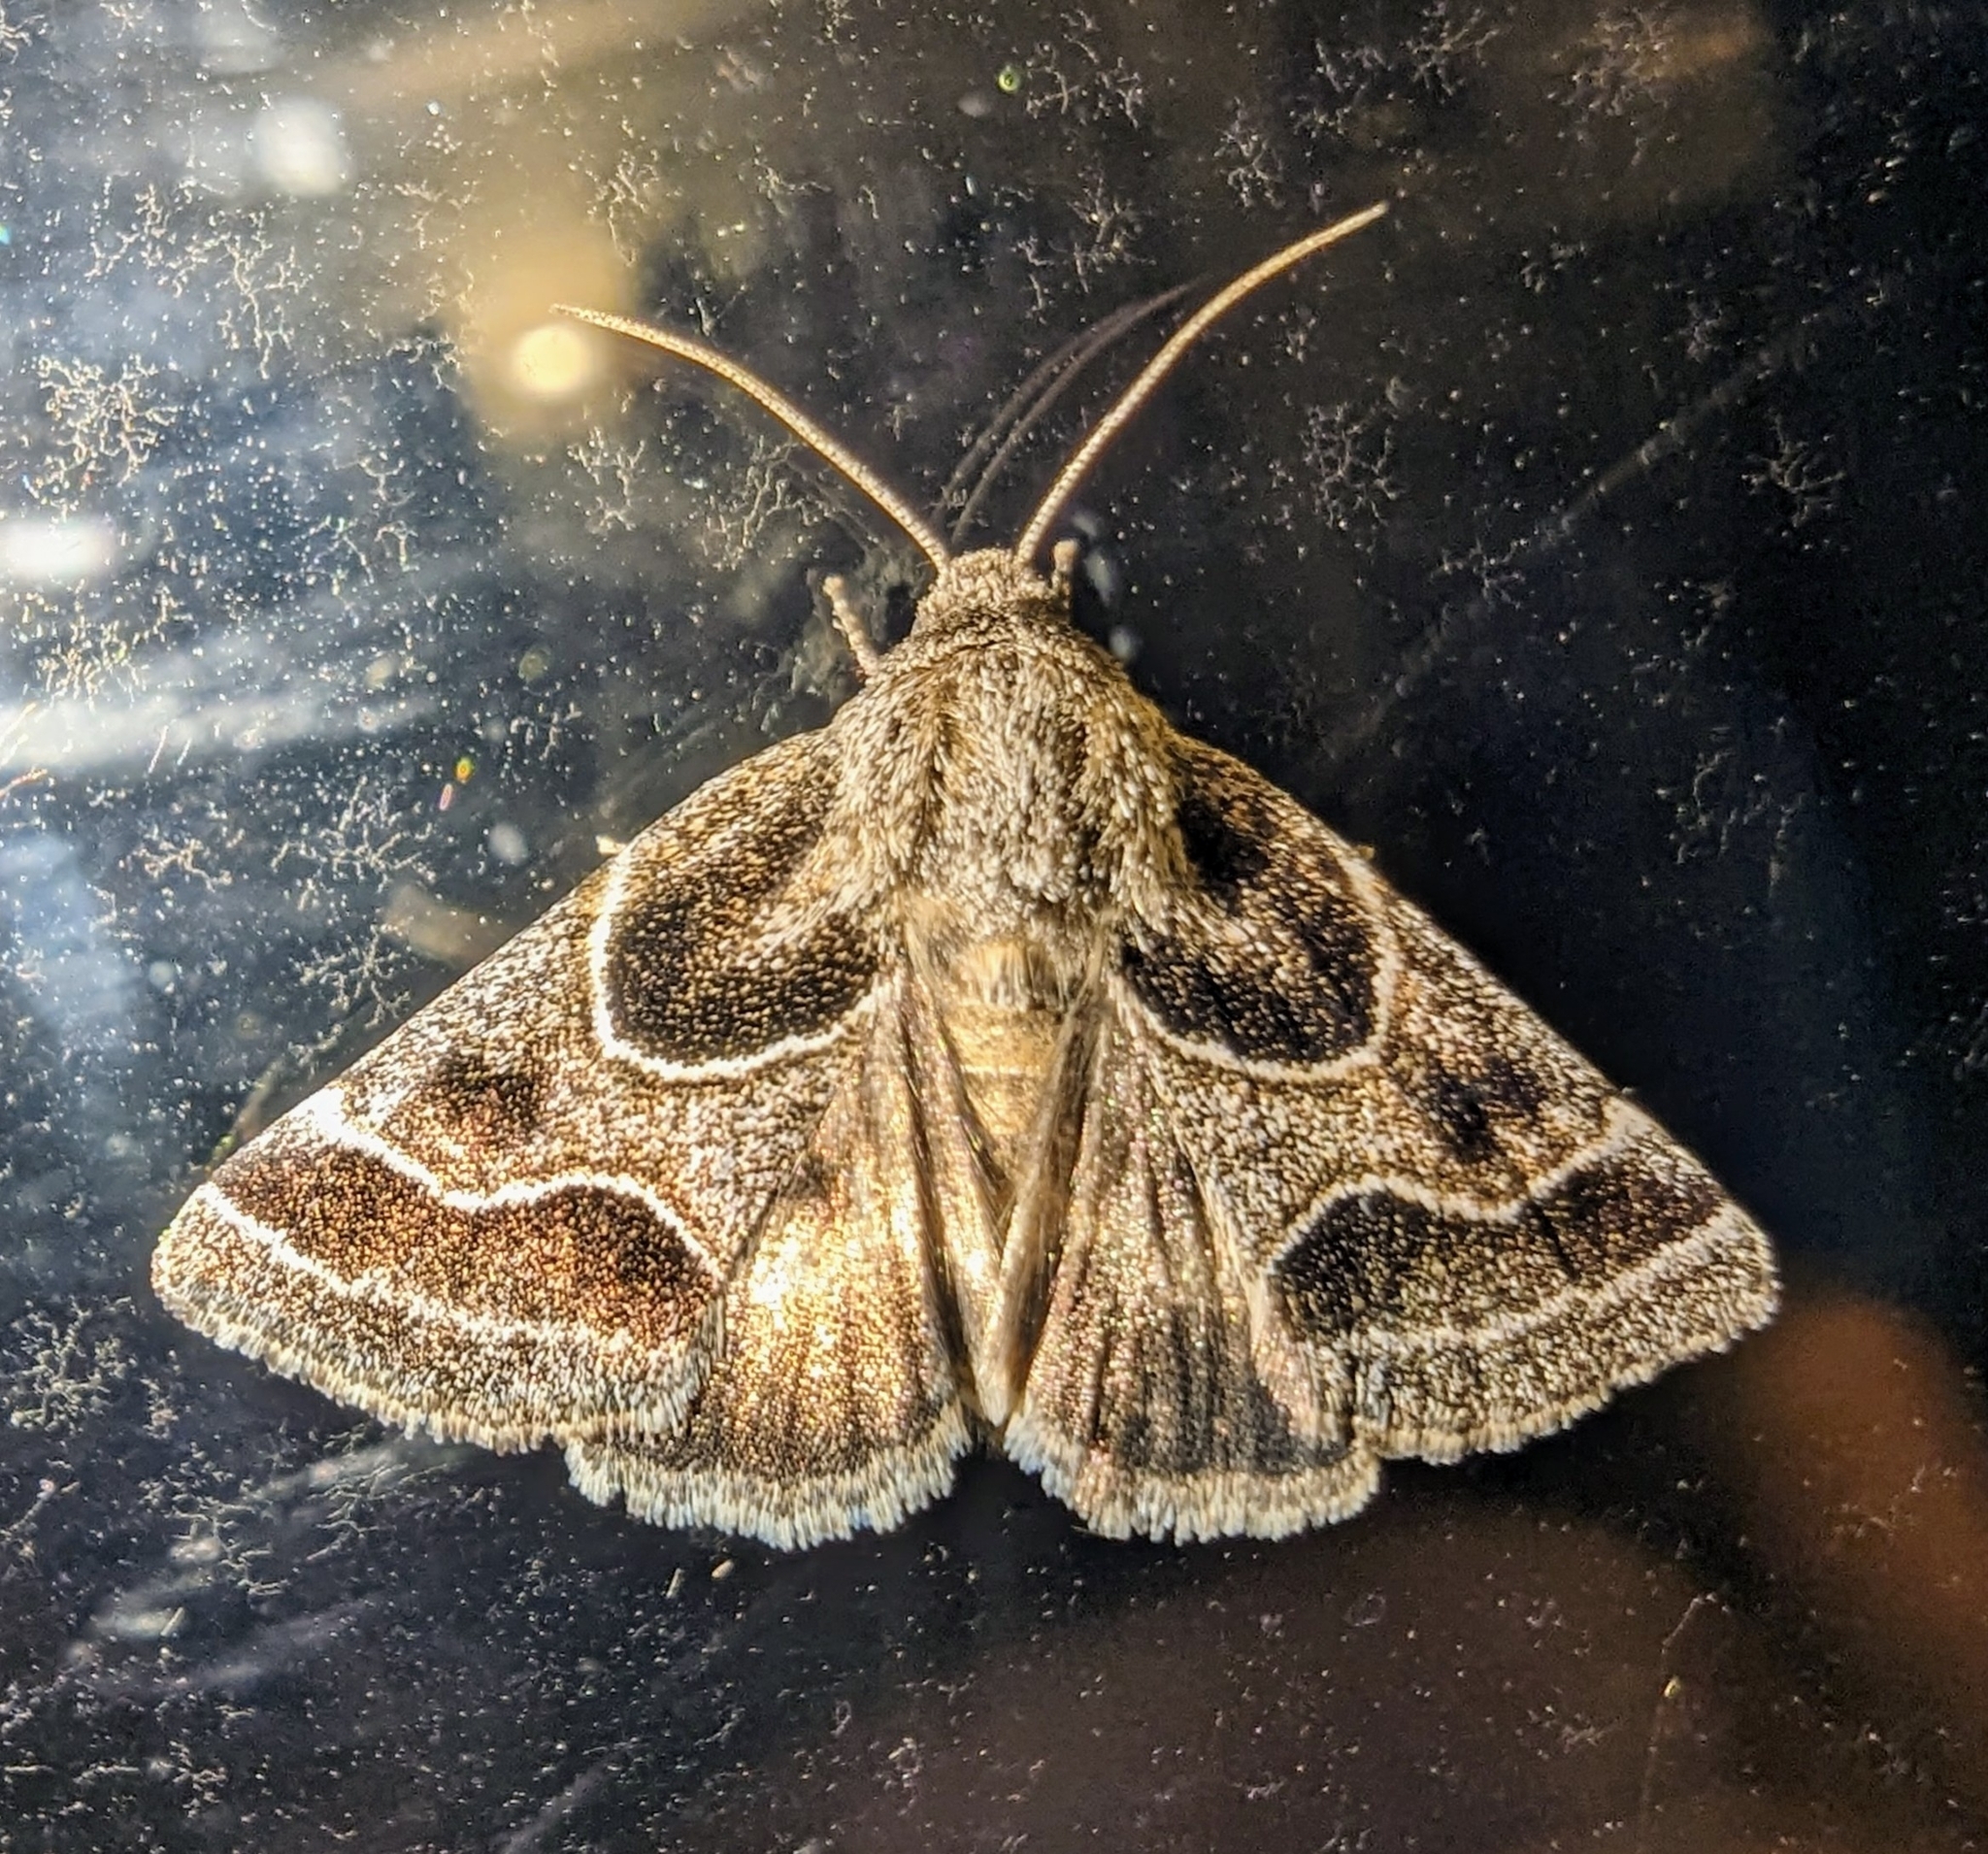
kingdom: Animalia
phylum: Arthropoda
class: Insecta
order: Lepidoptera
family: Noctuidae
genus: Schinia
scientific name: Schinia rivulosa
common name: Scarce meal-moth
